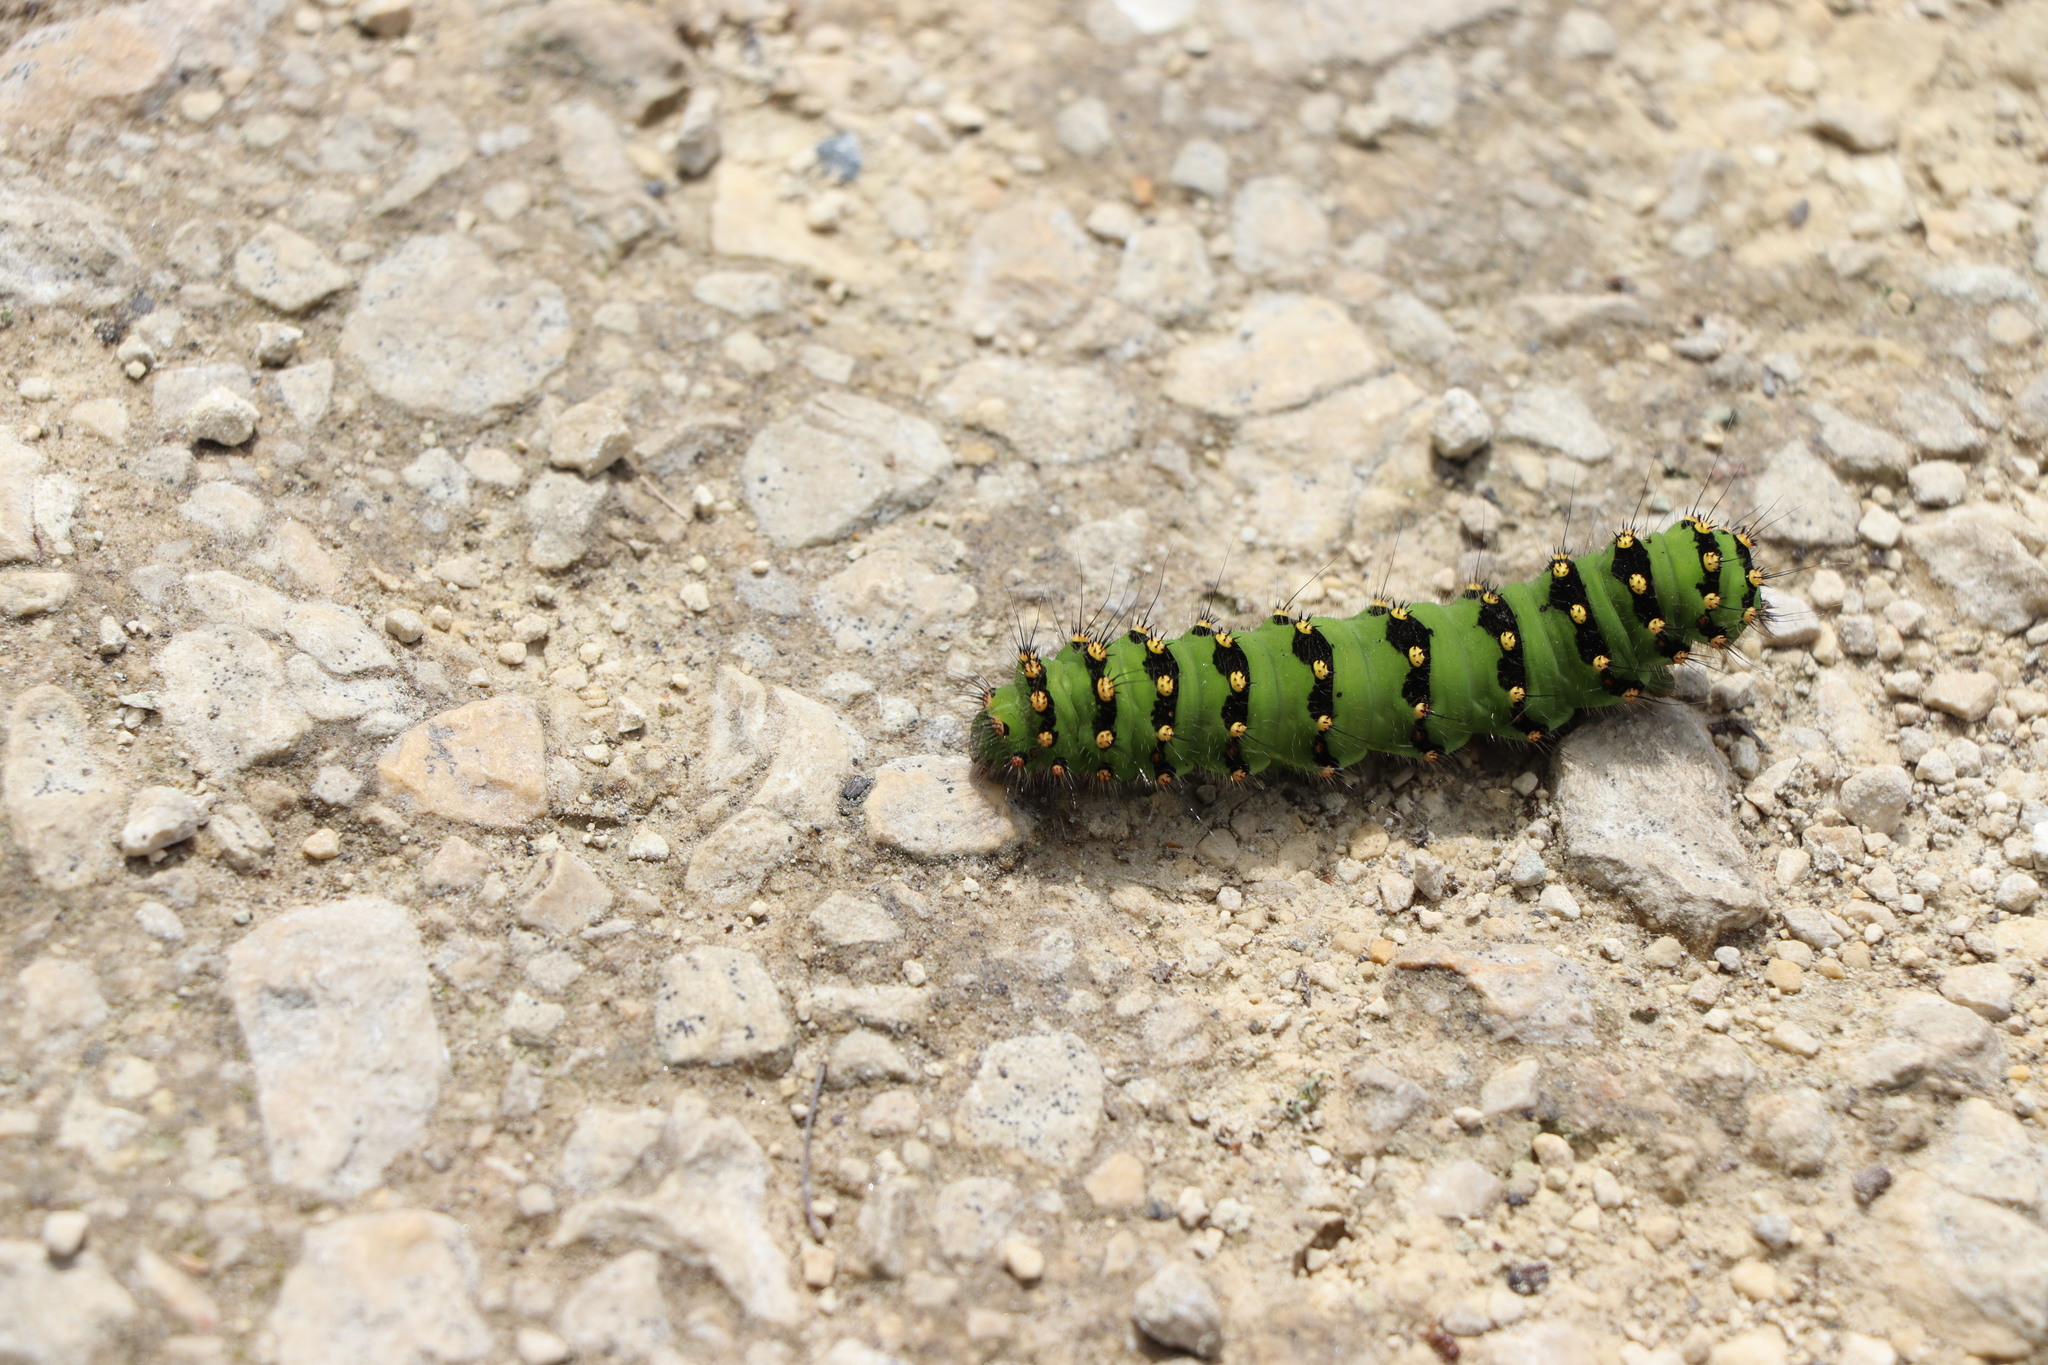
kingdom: Animalia
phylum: Arthropoda
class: Insecta
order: Lepidoptera
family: Saturniidae
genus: Saturnia
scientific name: Saturnia pavonia
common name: Emperor moth
